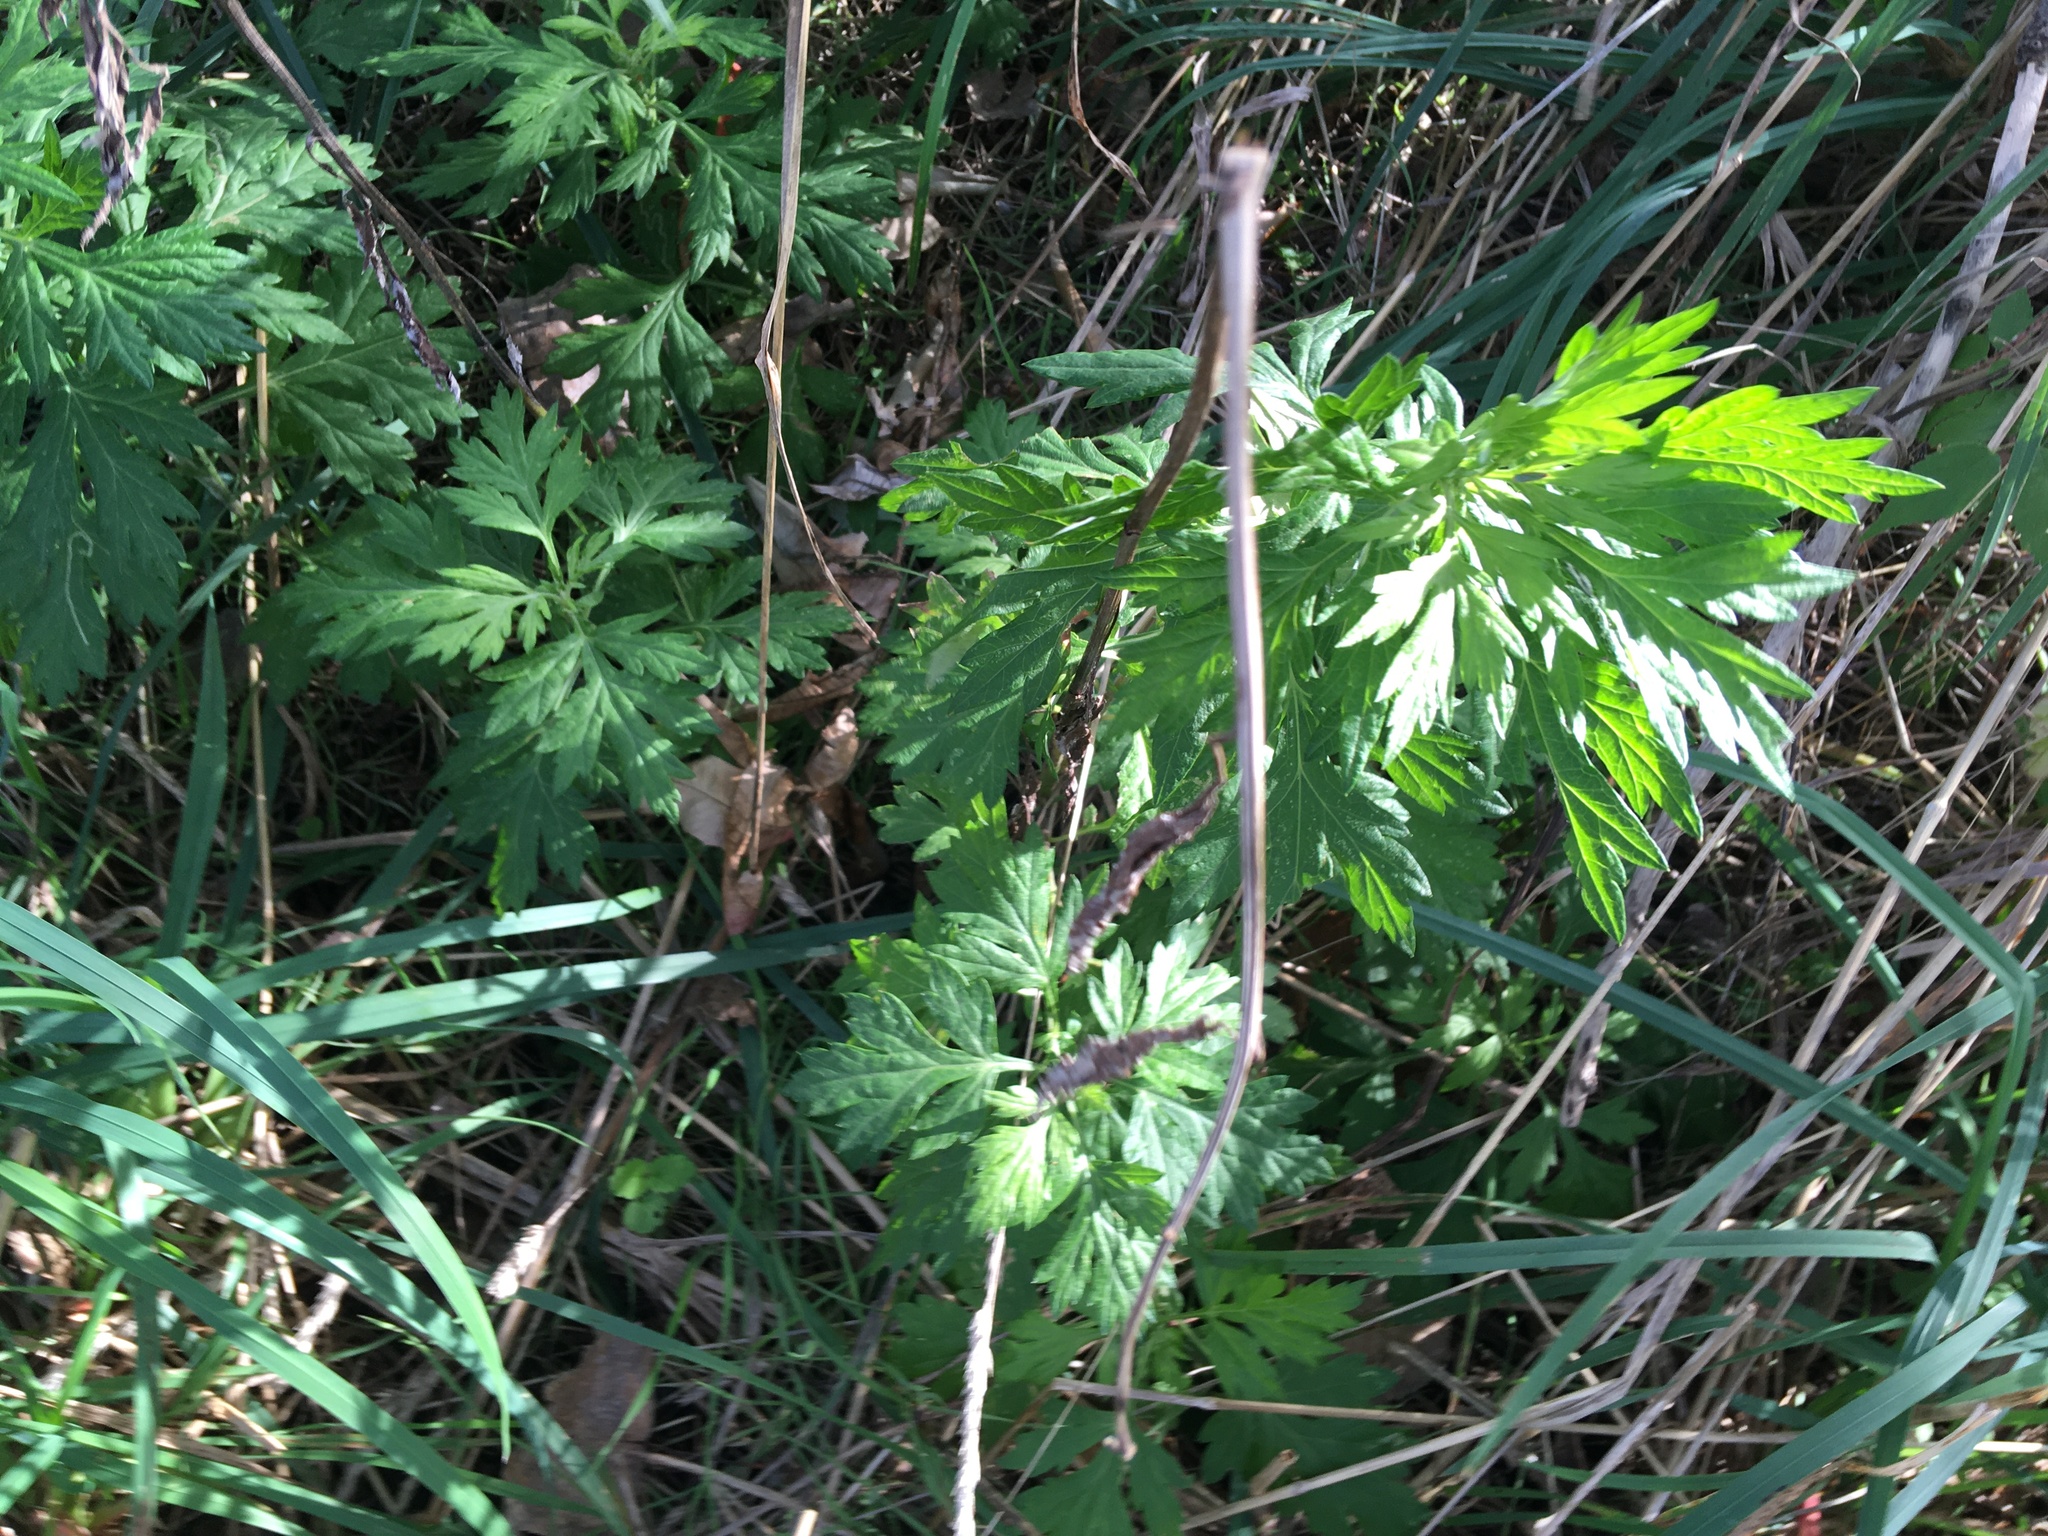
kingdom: Plantae
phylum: Tracheophyta
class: Magnoliopsida
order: Asterales
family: Asteraceae
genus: Artemisia
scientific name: Artemisia vulgaris
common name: Mugwort
